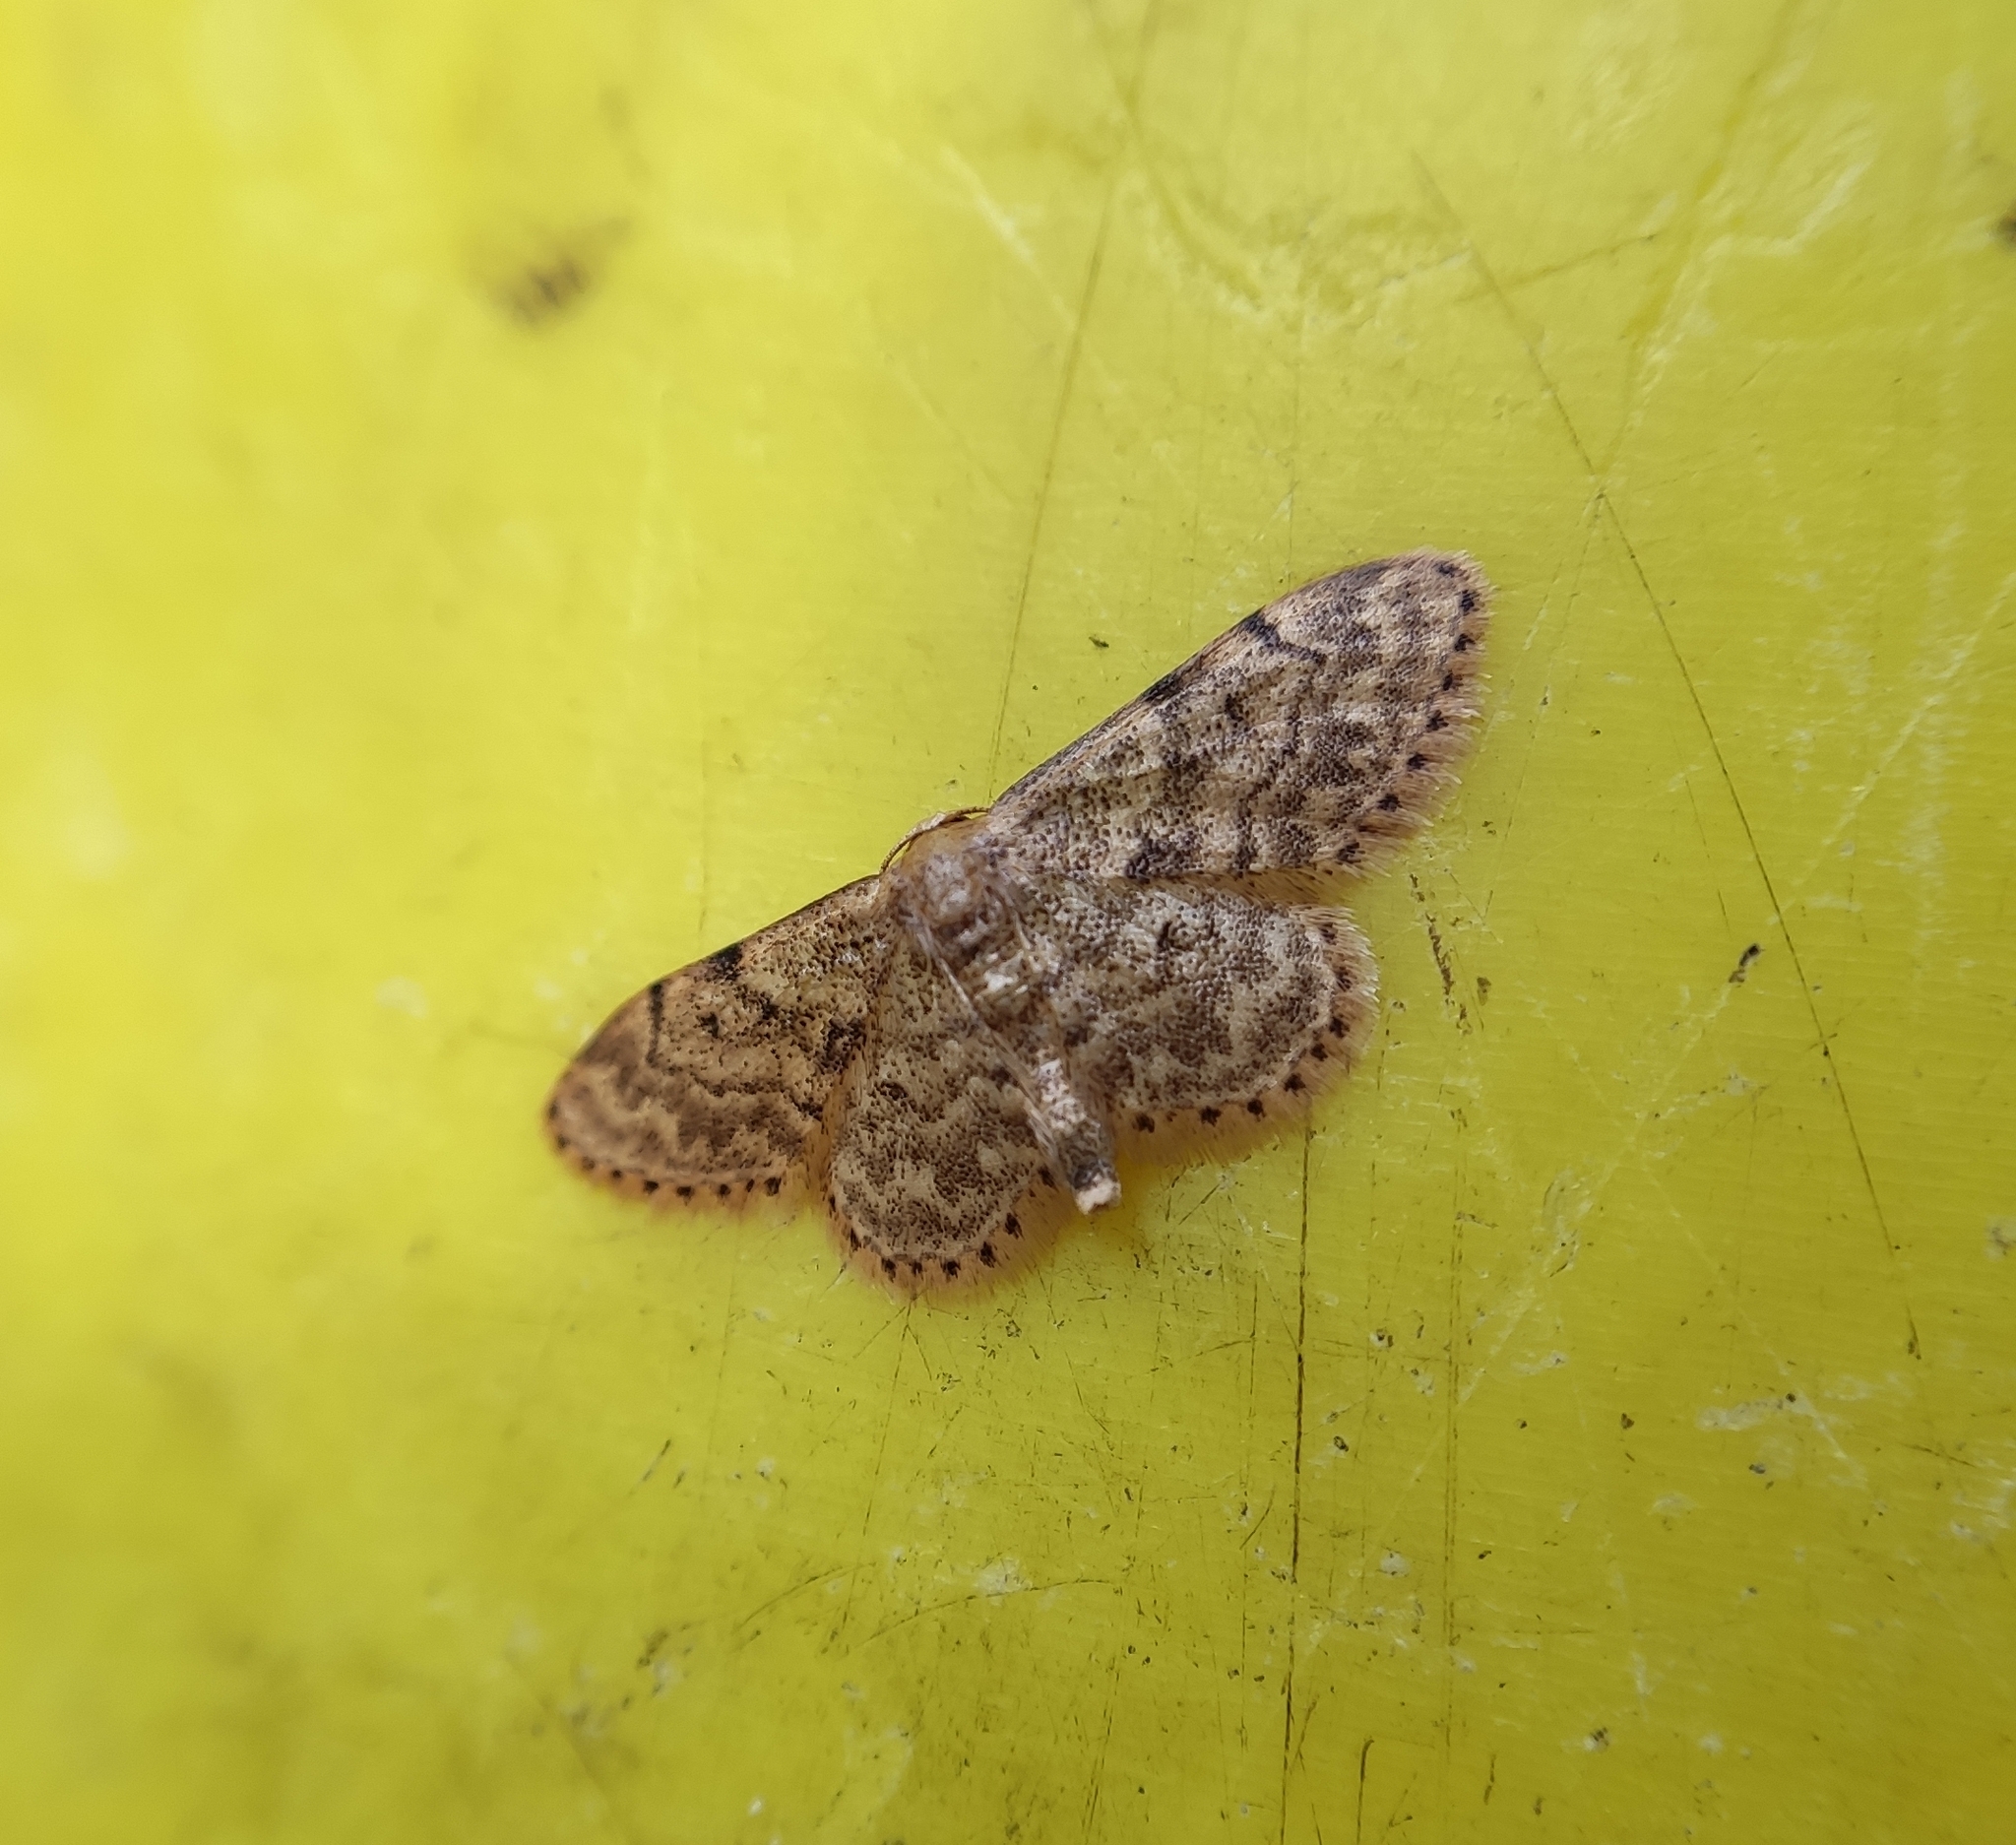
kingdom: Animalia
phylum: Arthropoda
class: Insecta
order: Lepidoptera
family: Geometridae
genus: Idaea
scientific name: Idaea inquinata
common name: Rusty wave
